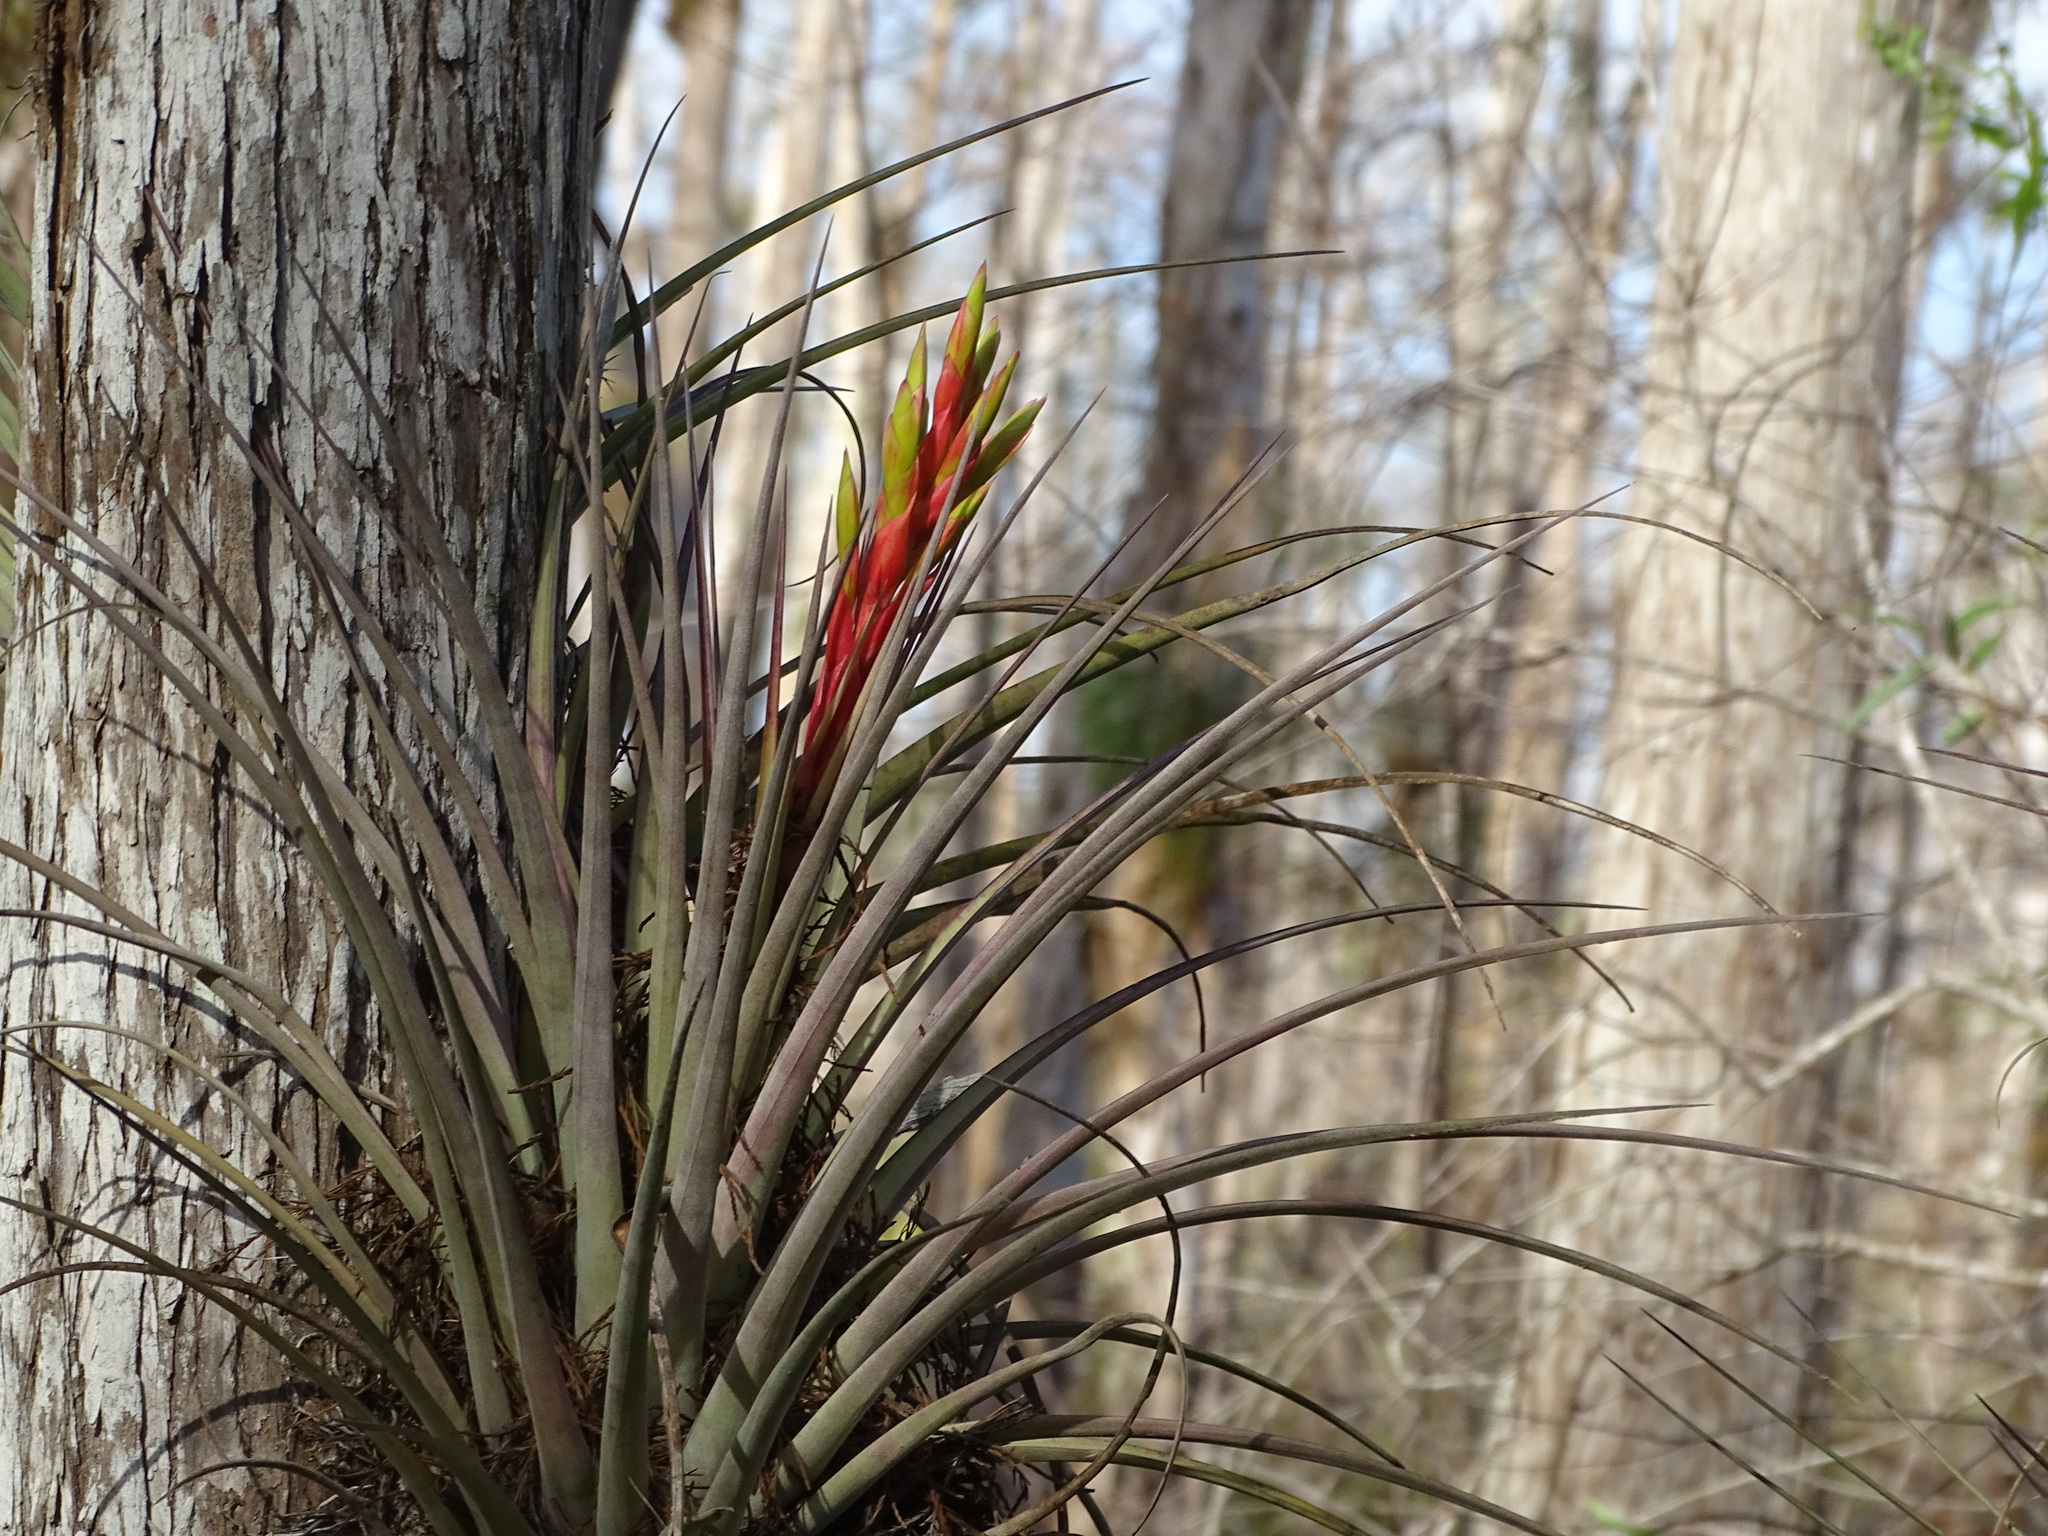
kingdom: Plantae
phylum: Tracheophyta
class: Liliopsida
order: Poales
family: Bromeliaceae
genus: Tillandsia
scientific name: Tillandsia fasciculata
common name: Giant airplant
